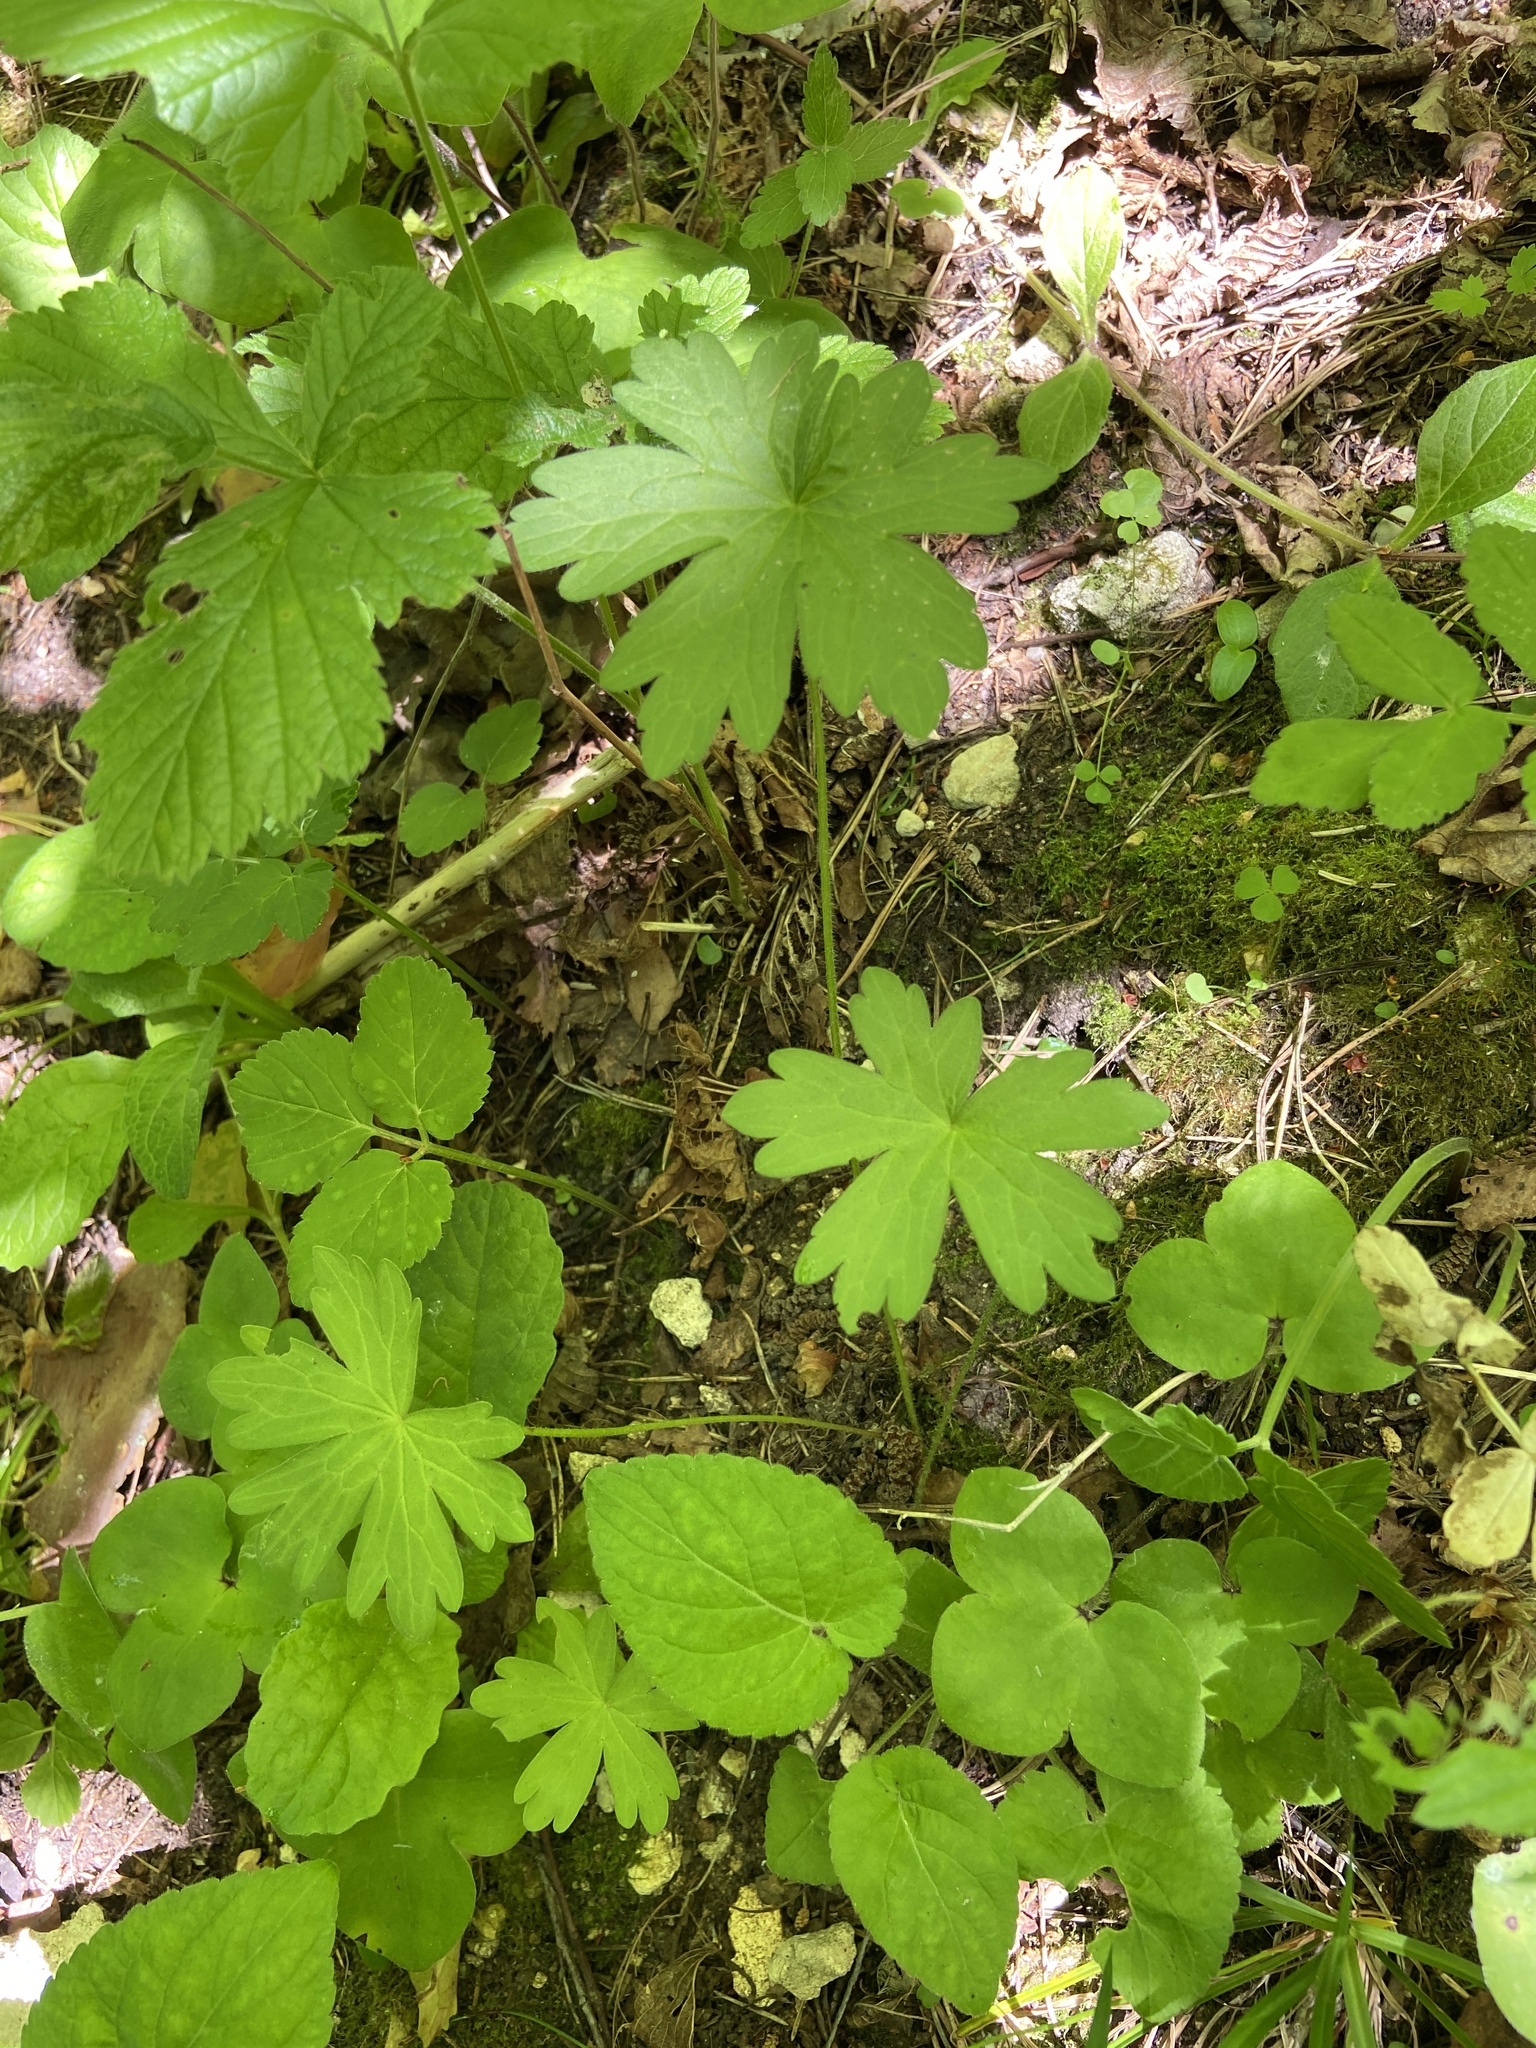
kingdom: Plantae
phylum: Tracheophyta
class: Magnoliopsida
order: Geraniales
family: Geraniaceae
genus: Geranium
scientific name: Geranium sylvaticum
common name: Wood crane's-bill
